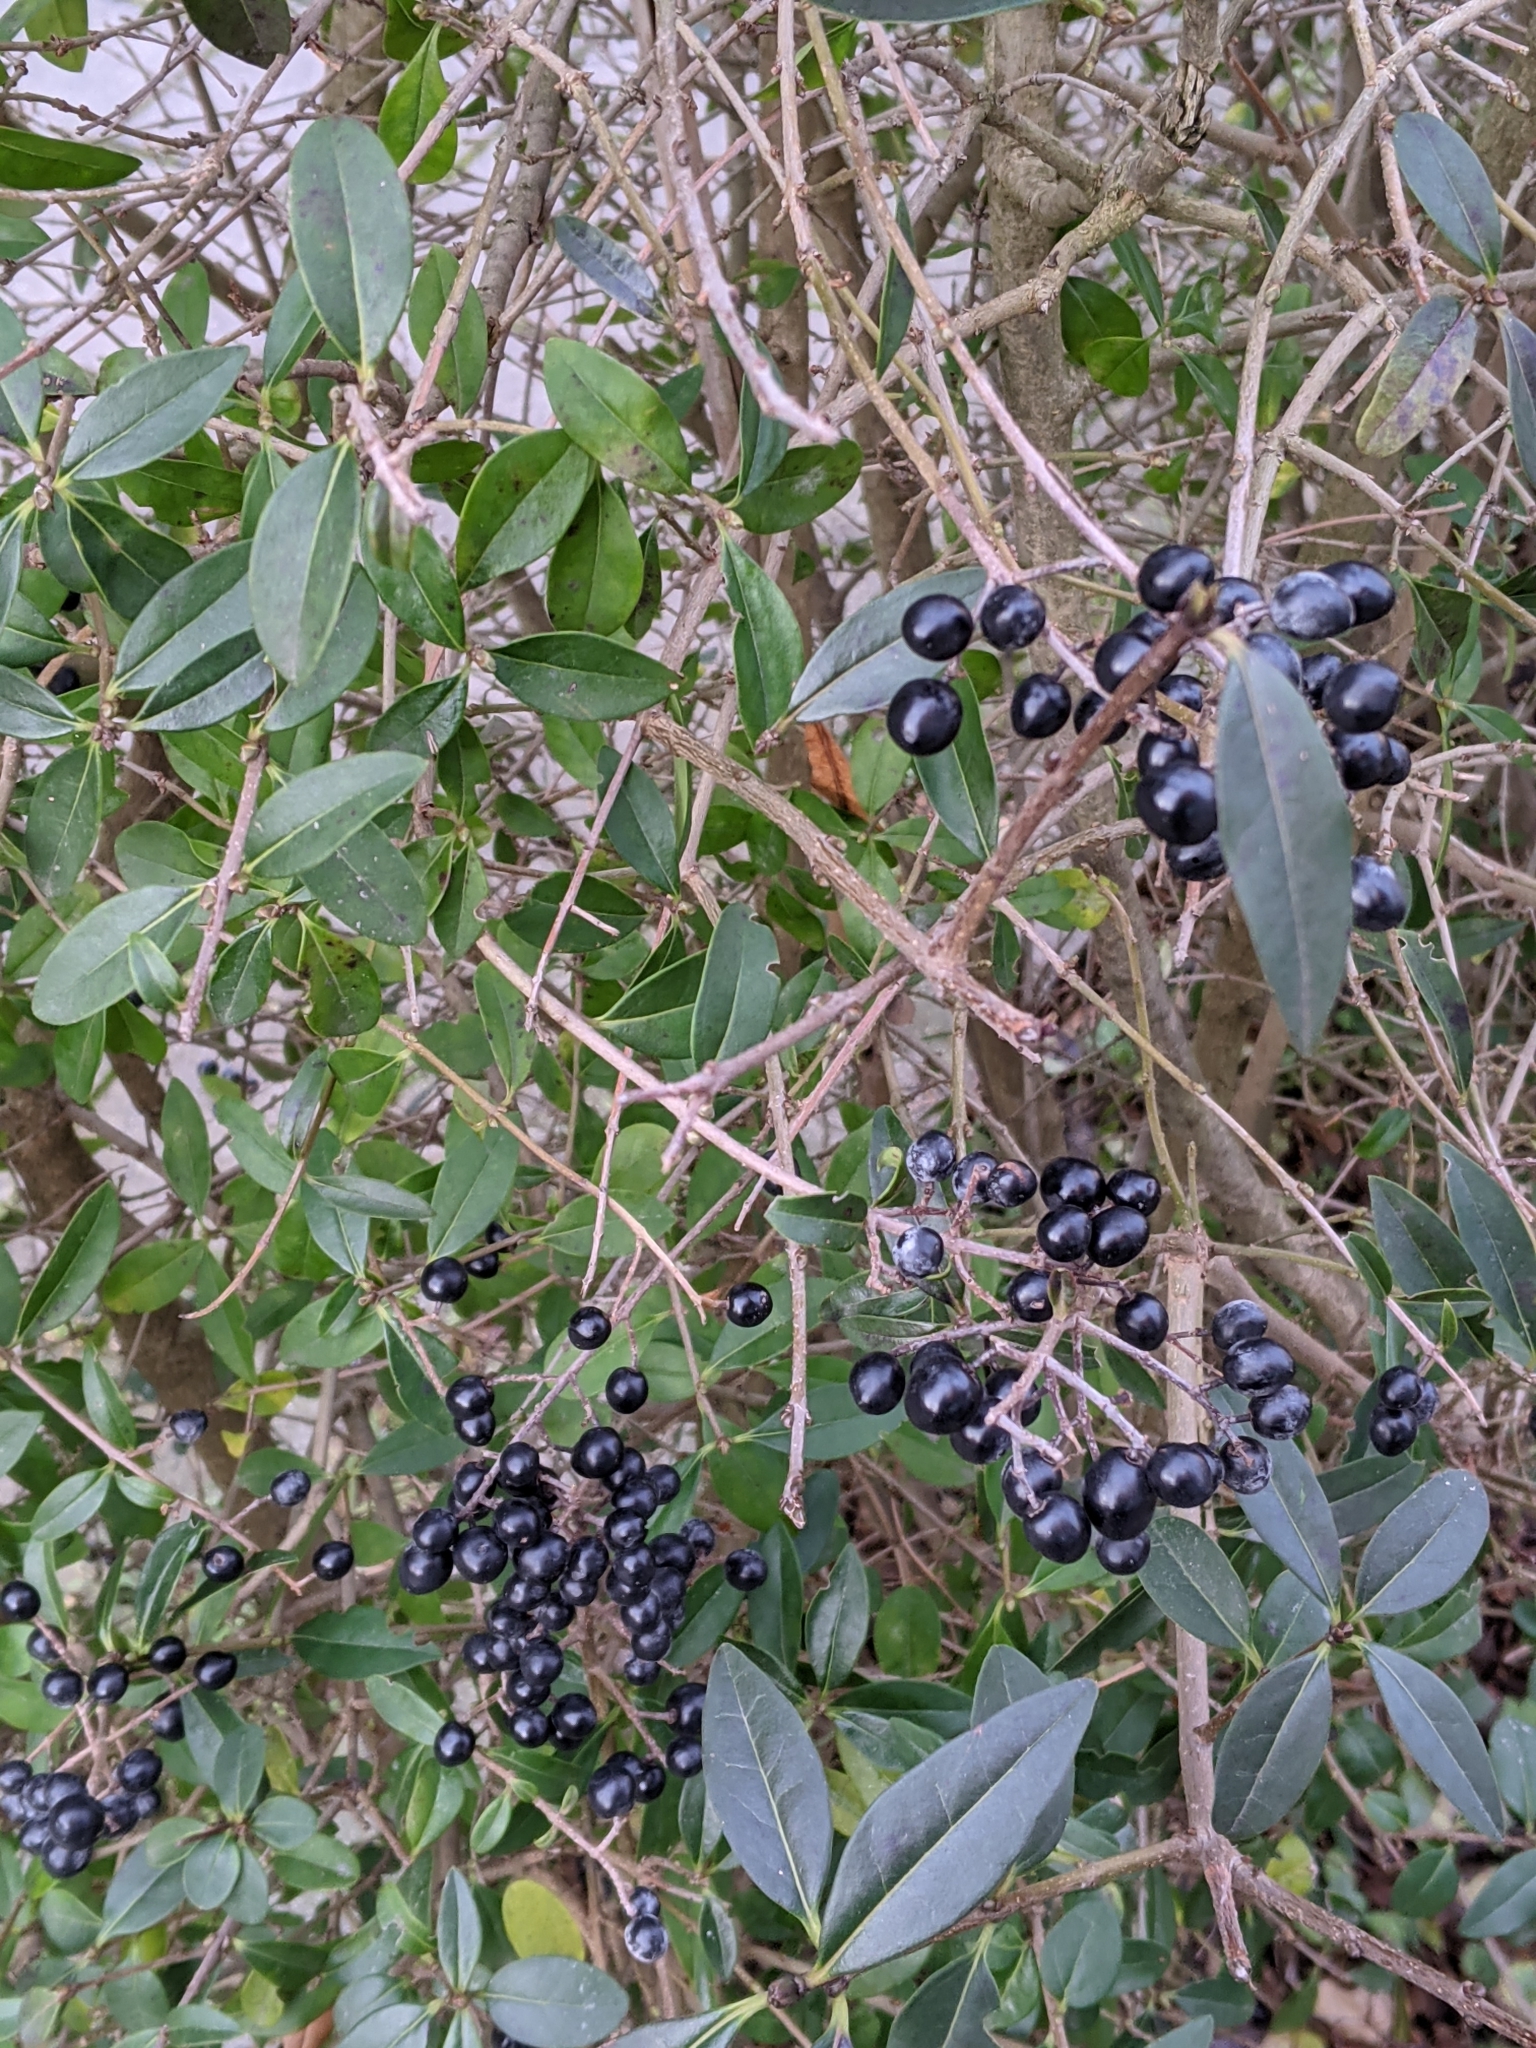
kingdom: Plantae
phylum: Tracheophyta
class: Magnoliopsida
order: Lamiales
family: Oleaceae
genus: Ligustrum
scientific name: Ligustrum vulgare
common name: Wild privet
